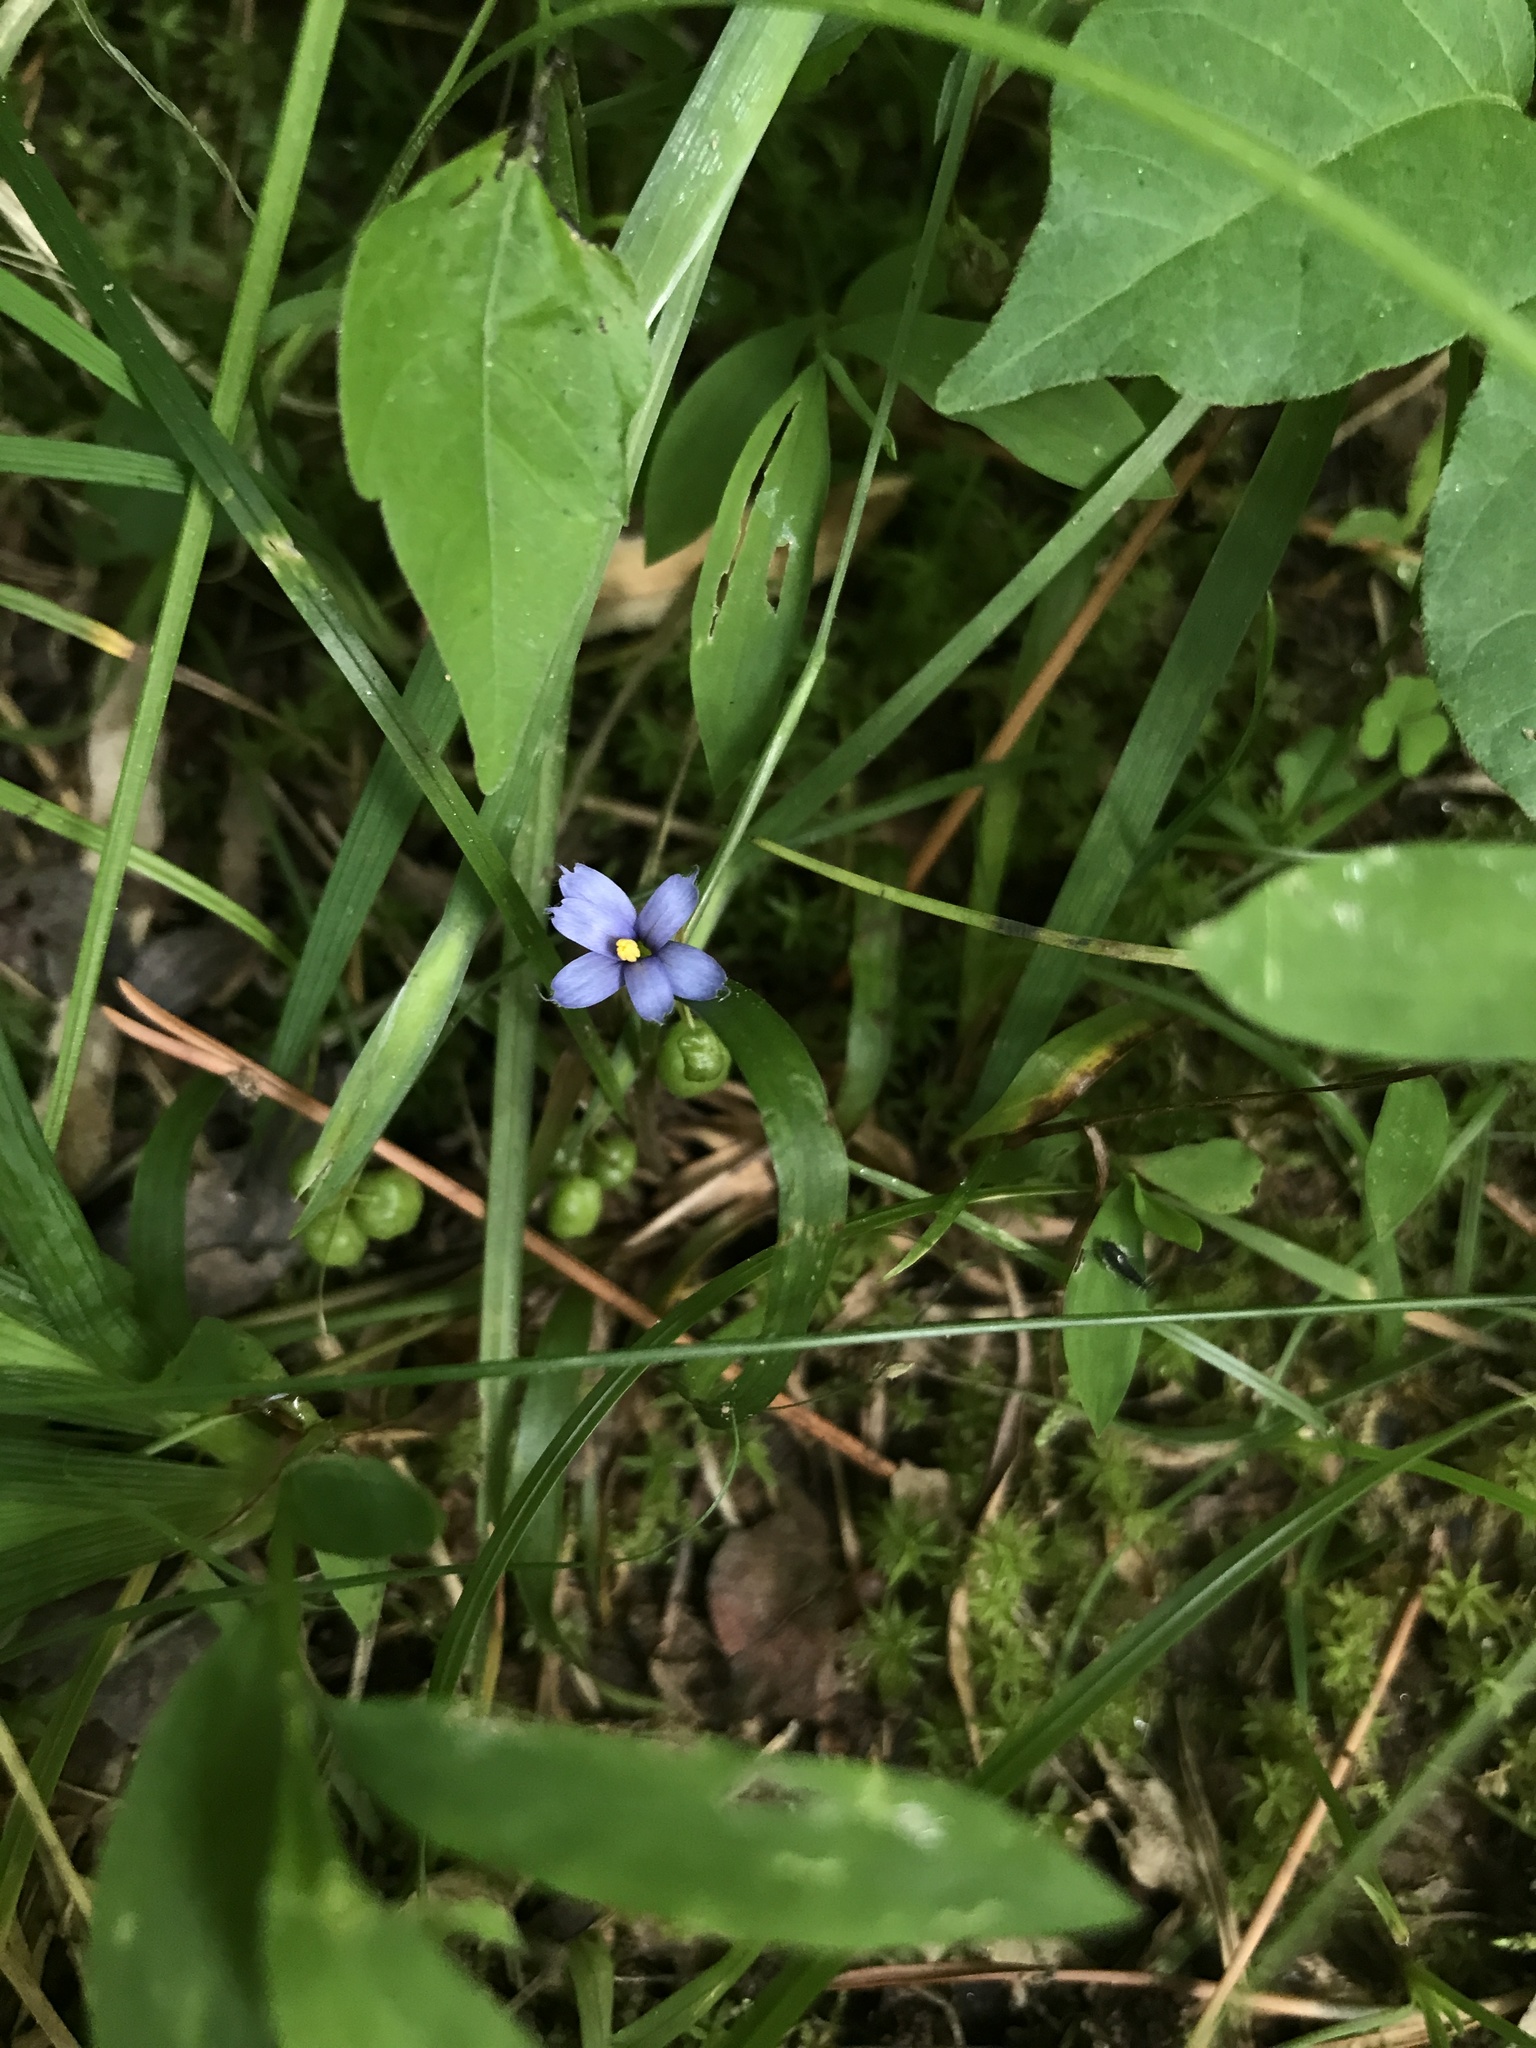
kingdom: Plantae
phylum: Tracheophyta
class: Liliopsida
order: Asparagales
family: Iridaceae
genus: Sisyrinchium
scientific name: Sisyrinchium angustifolium
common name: Narrow-leaf blue-eyed-grass
